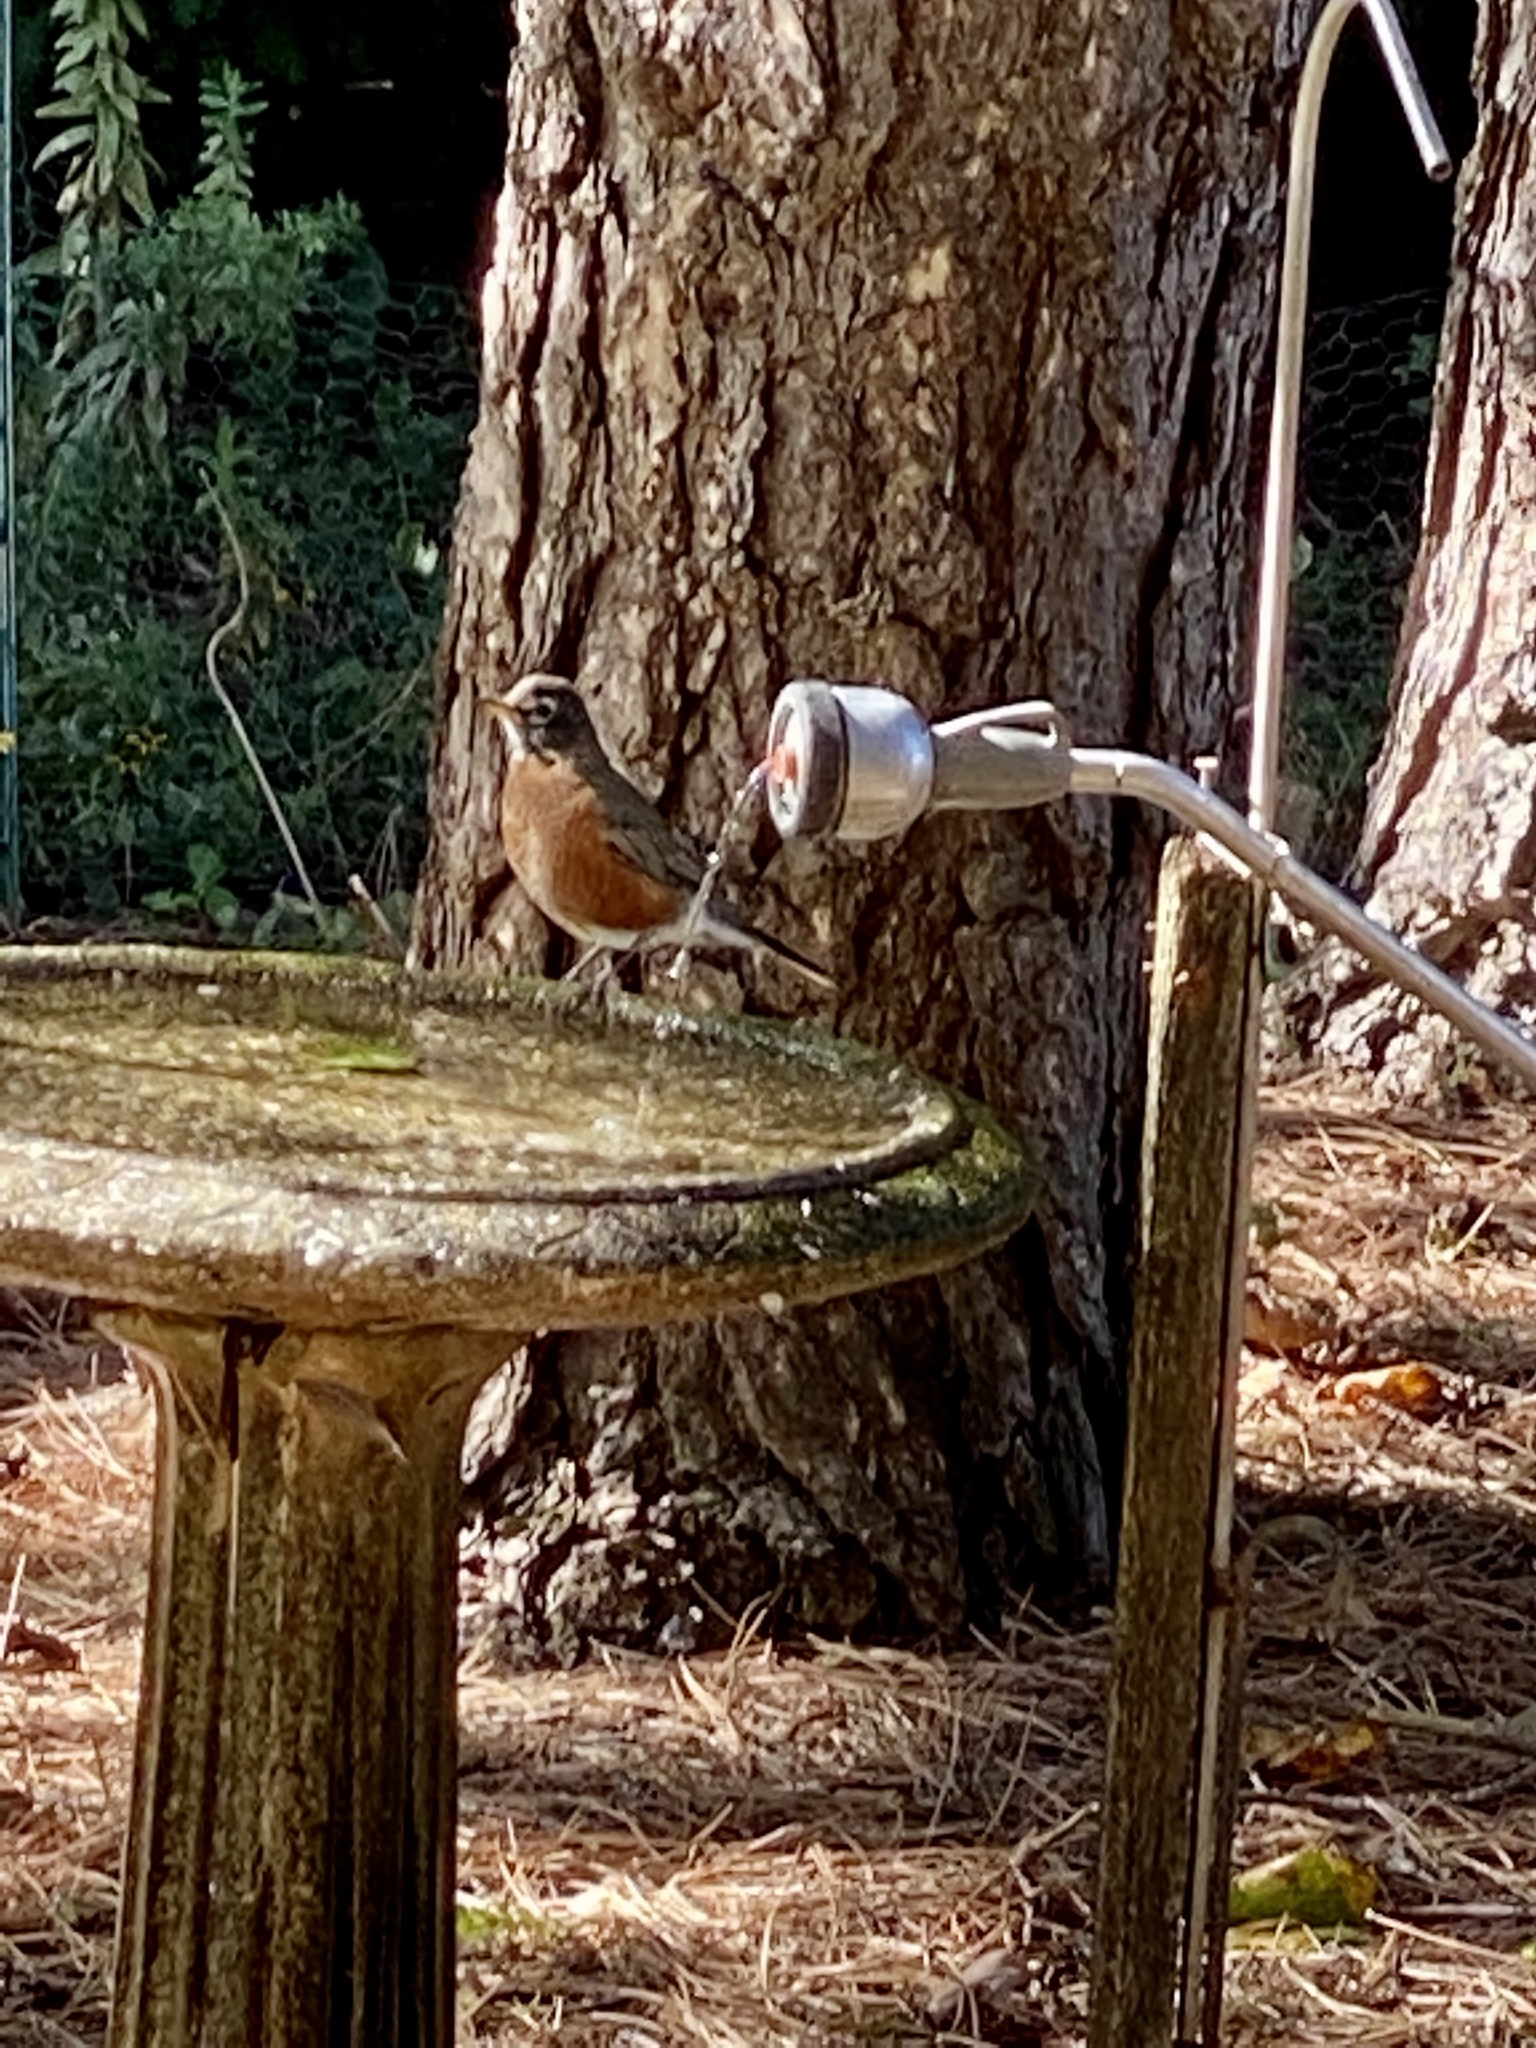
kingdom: Animalia
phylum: Chordata
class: Aves
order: Passeriformes
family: Turdidae
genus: Turdus
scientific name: Turdus migratorius
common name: American robin
